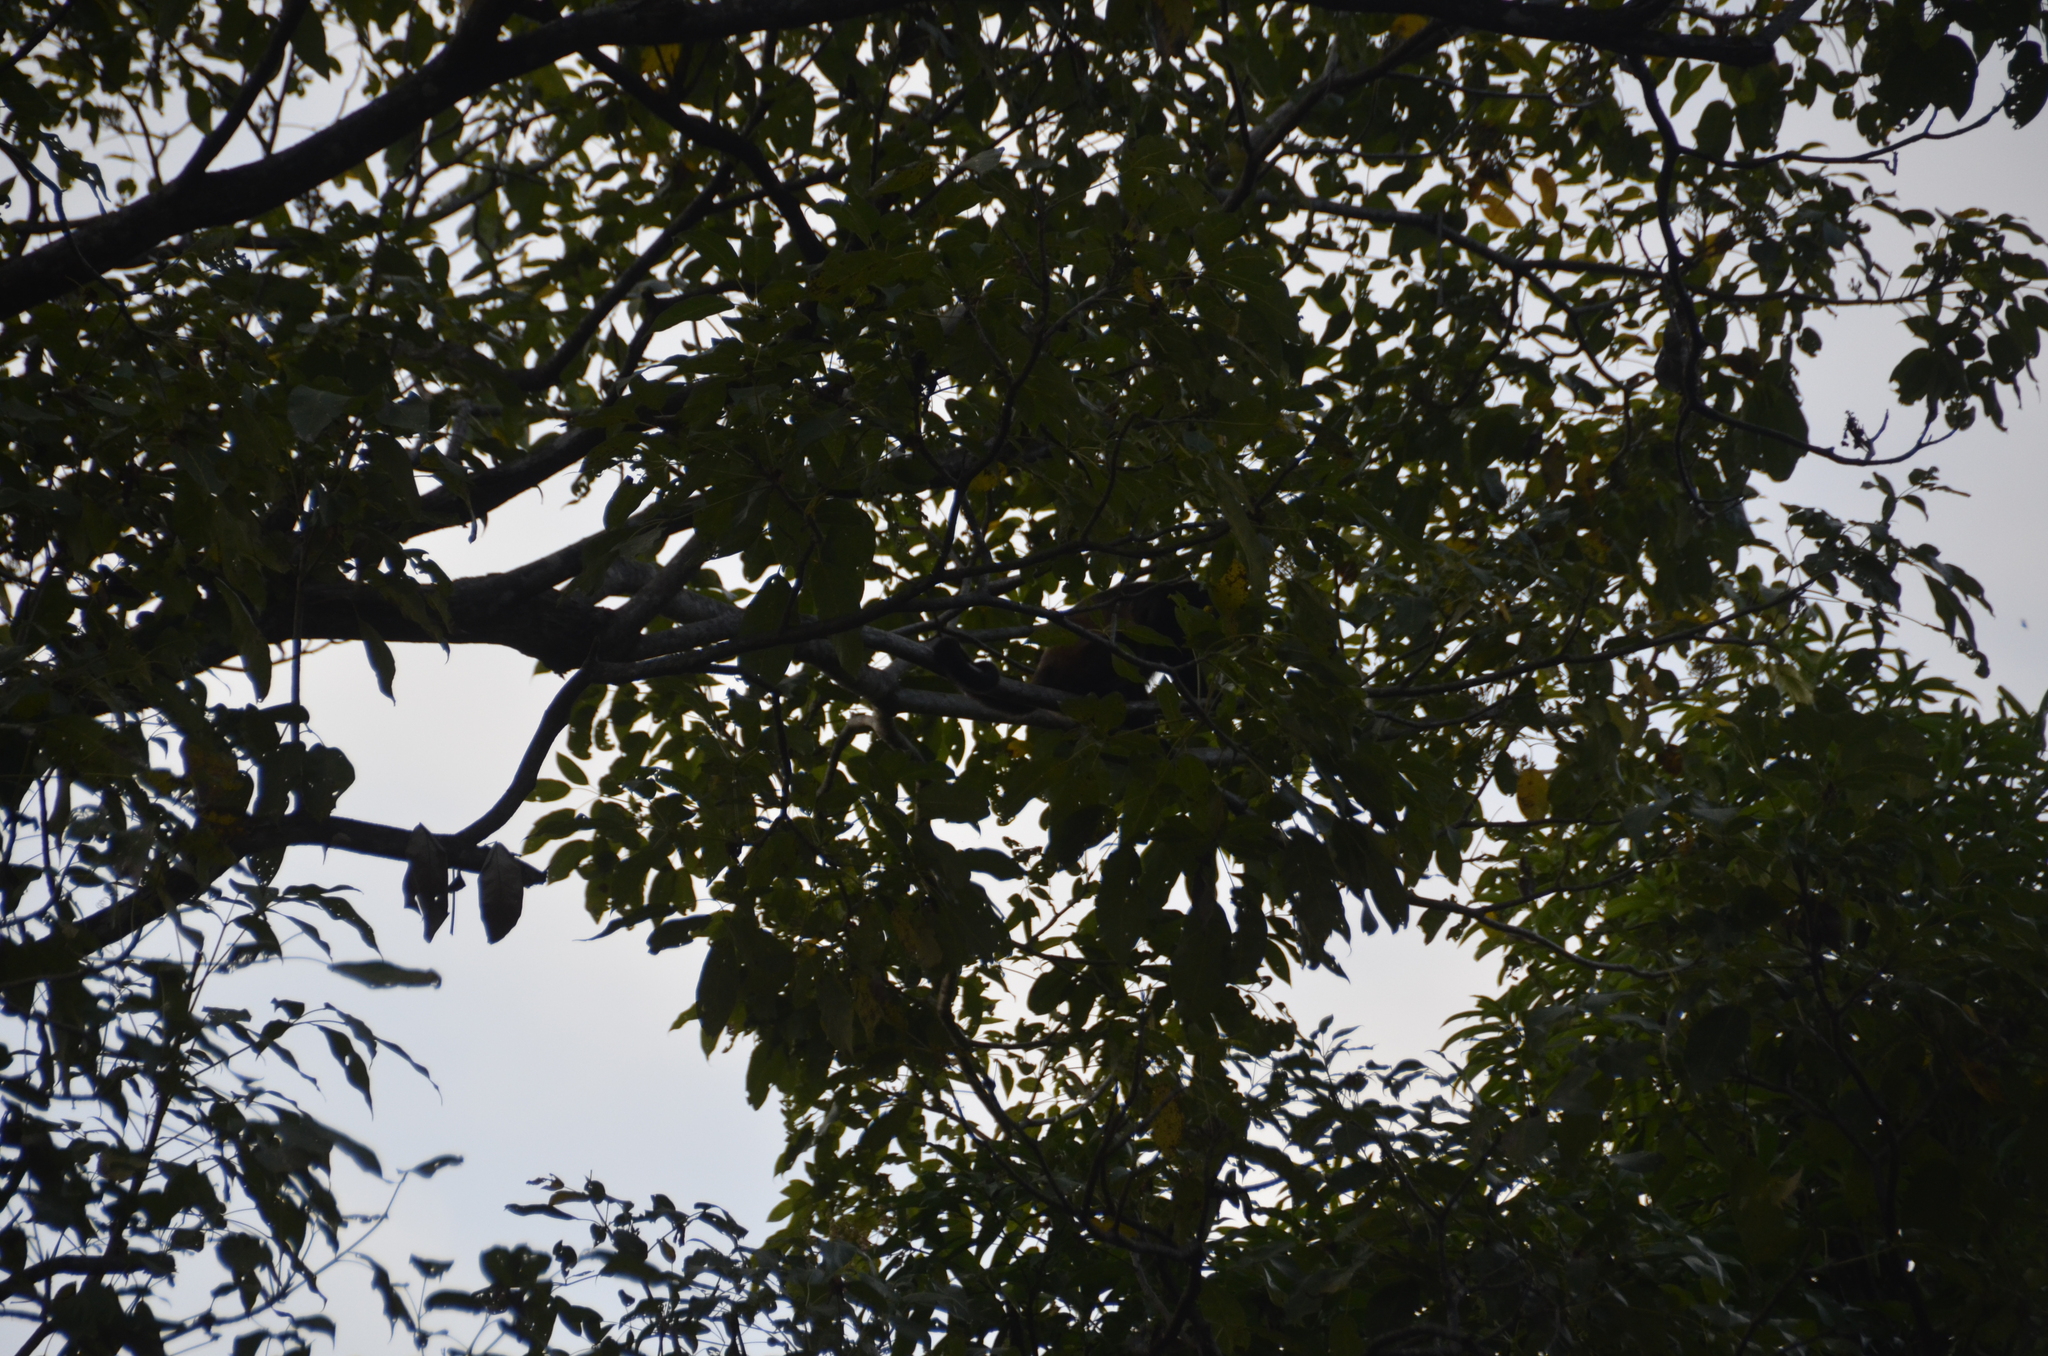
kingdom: Animalia
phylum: Chordata
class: Mammalia
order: Primates
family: Atelidae
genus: Alouatta
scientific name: Alouatta palliata
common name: Mantled howler
